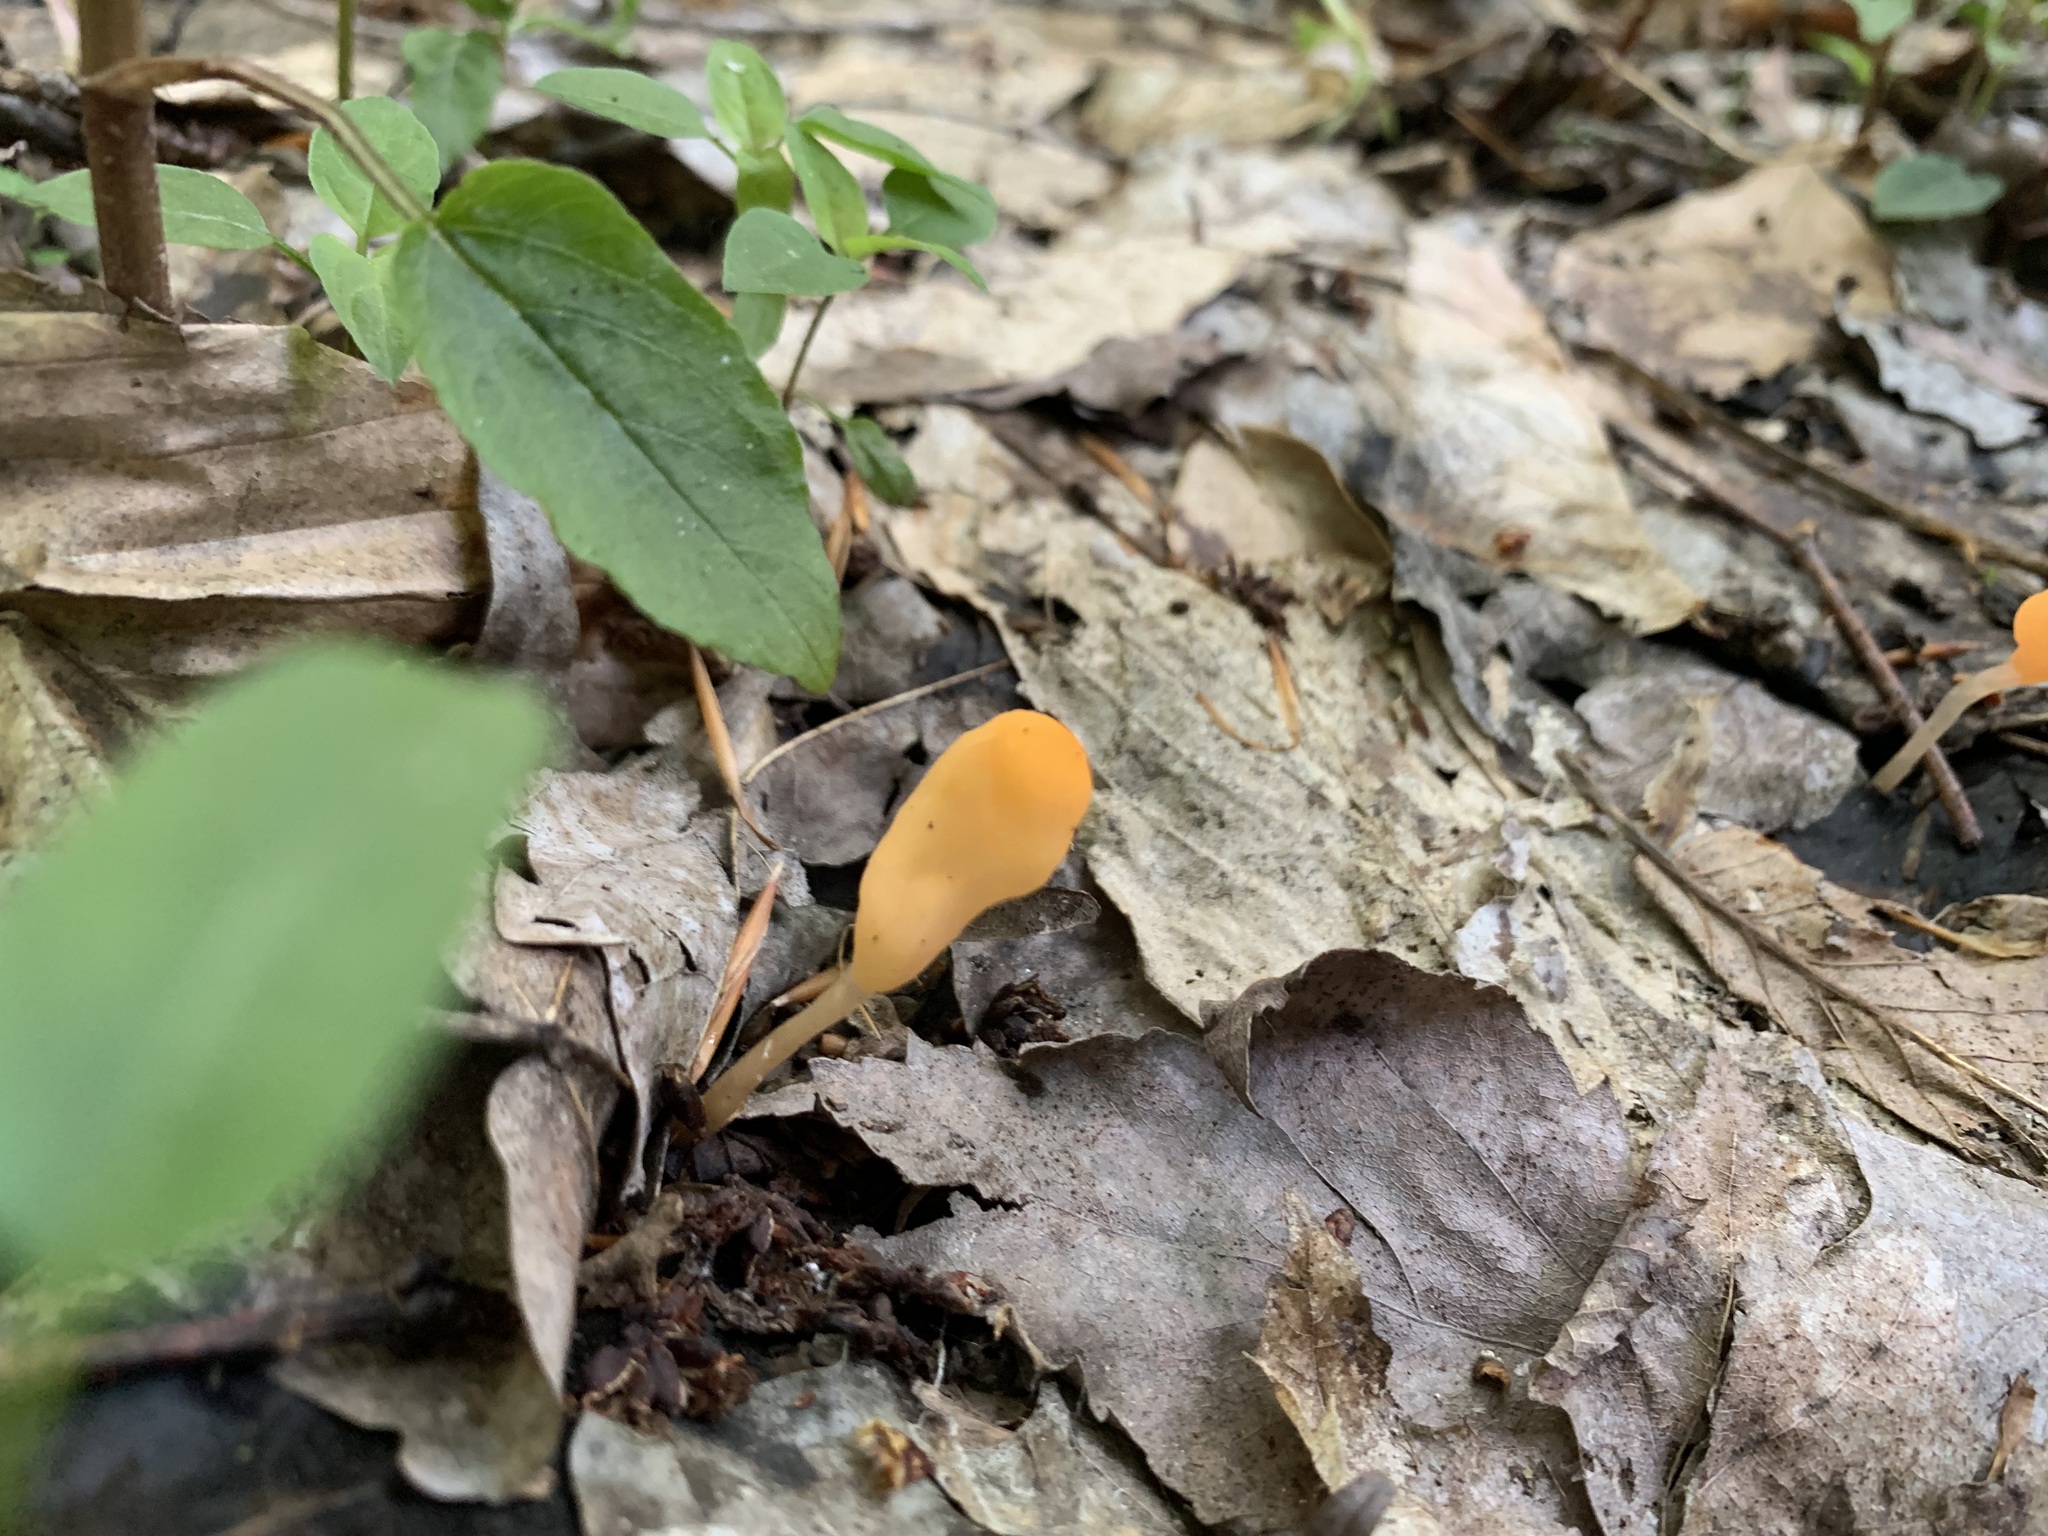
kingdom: Fungi
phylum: Ascomycota
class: Leotiomycetes
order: Helotiales
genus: Mitrula
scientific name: Mitrula
